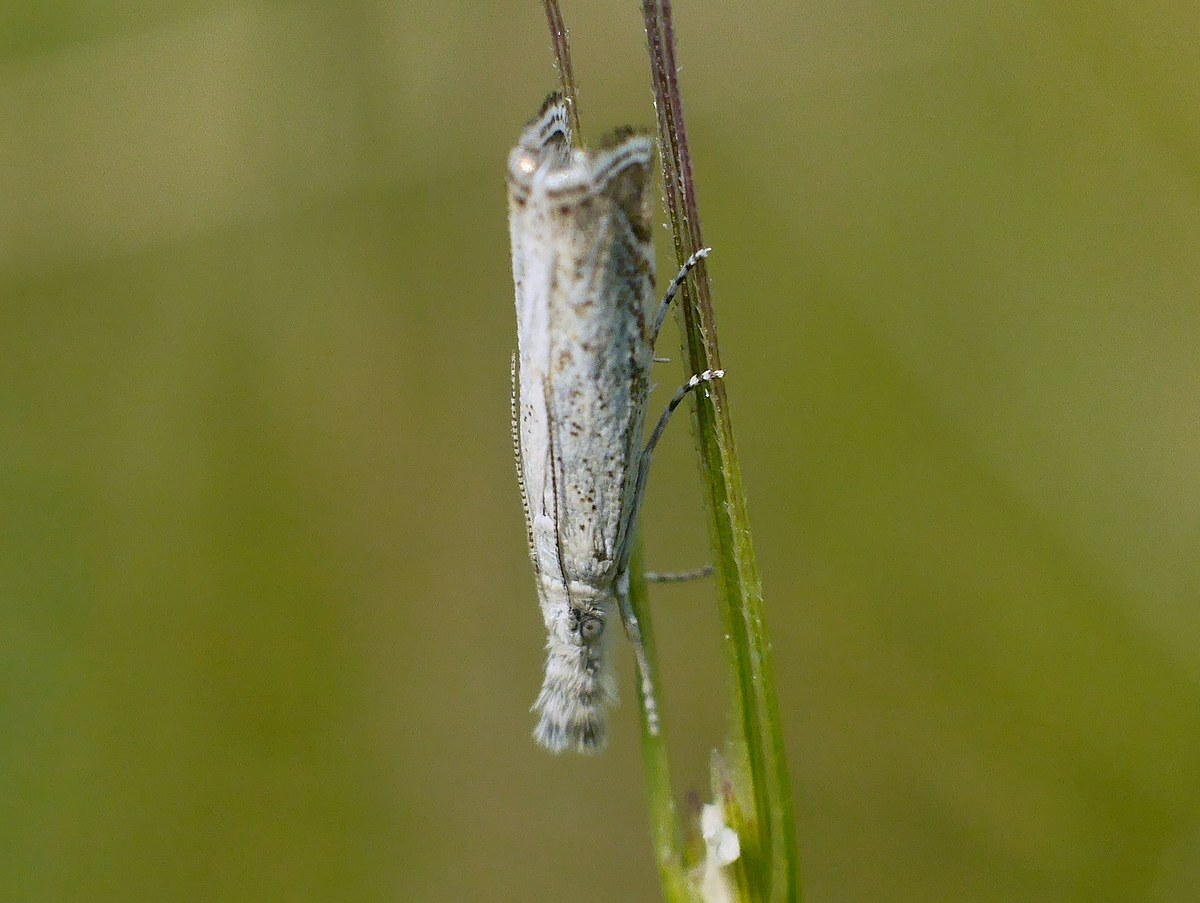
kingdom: Animalia
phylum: Arthropoda
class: Insecta
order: Lepidoptera
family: Crambidae
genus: Platytes
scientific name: Platytes cerusella
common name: Little grass-veneer
